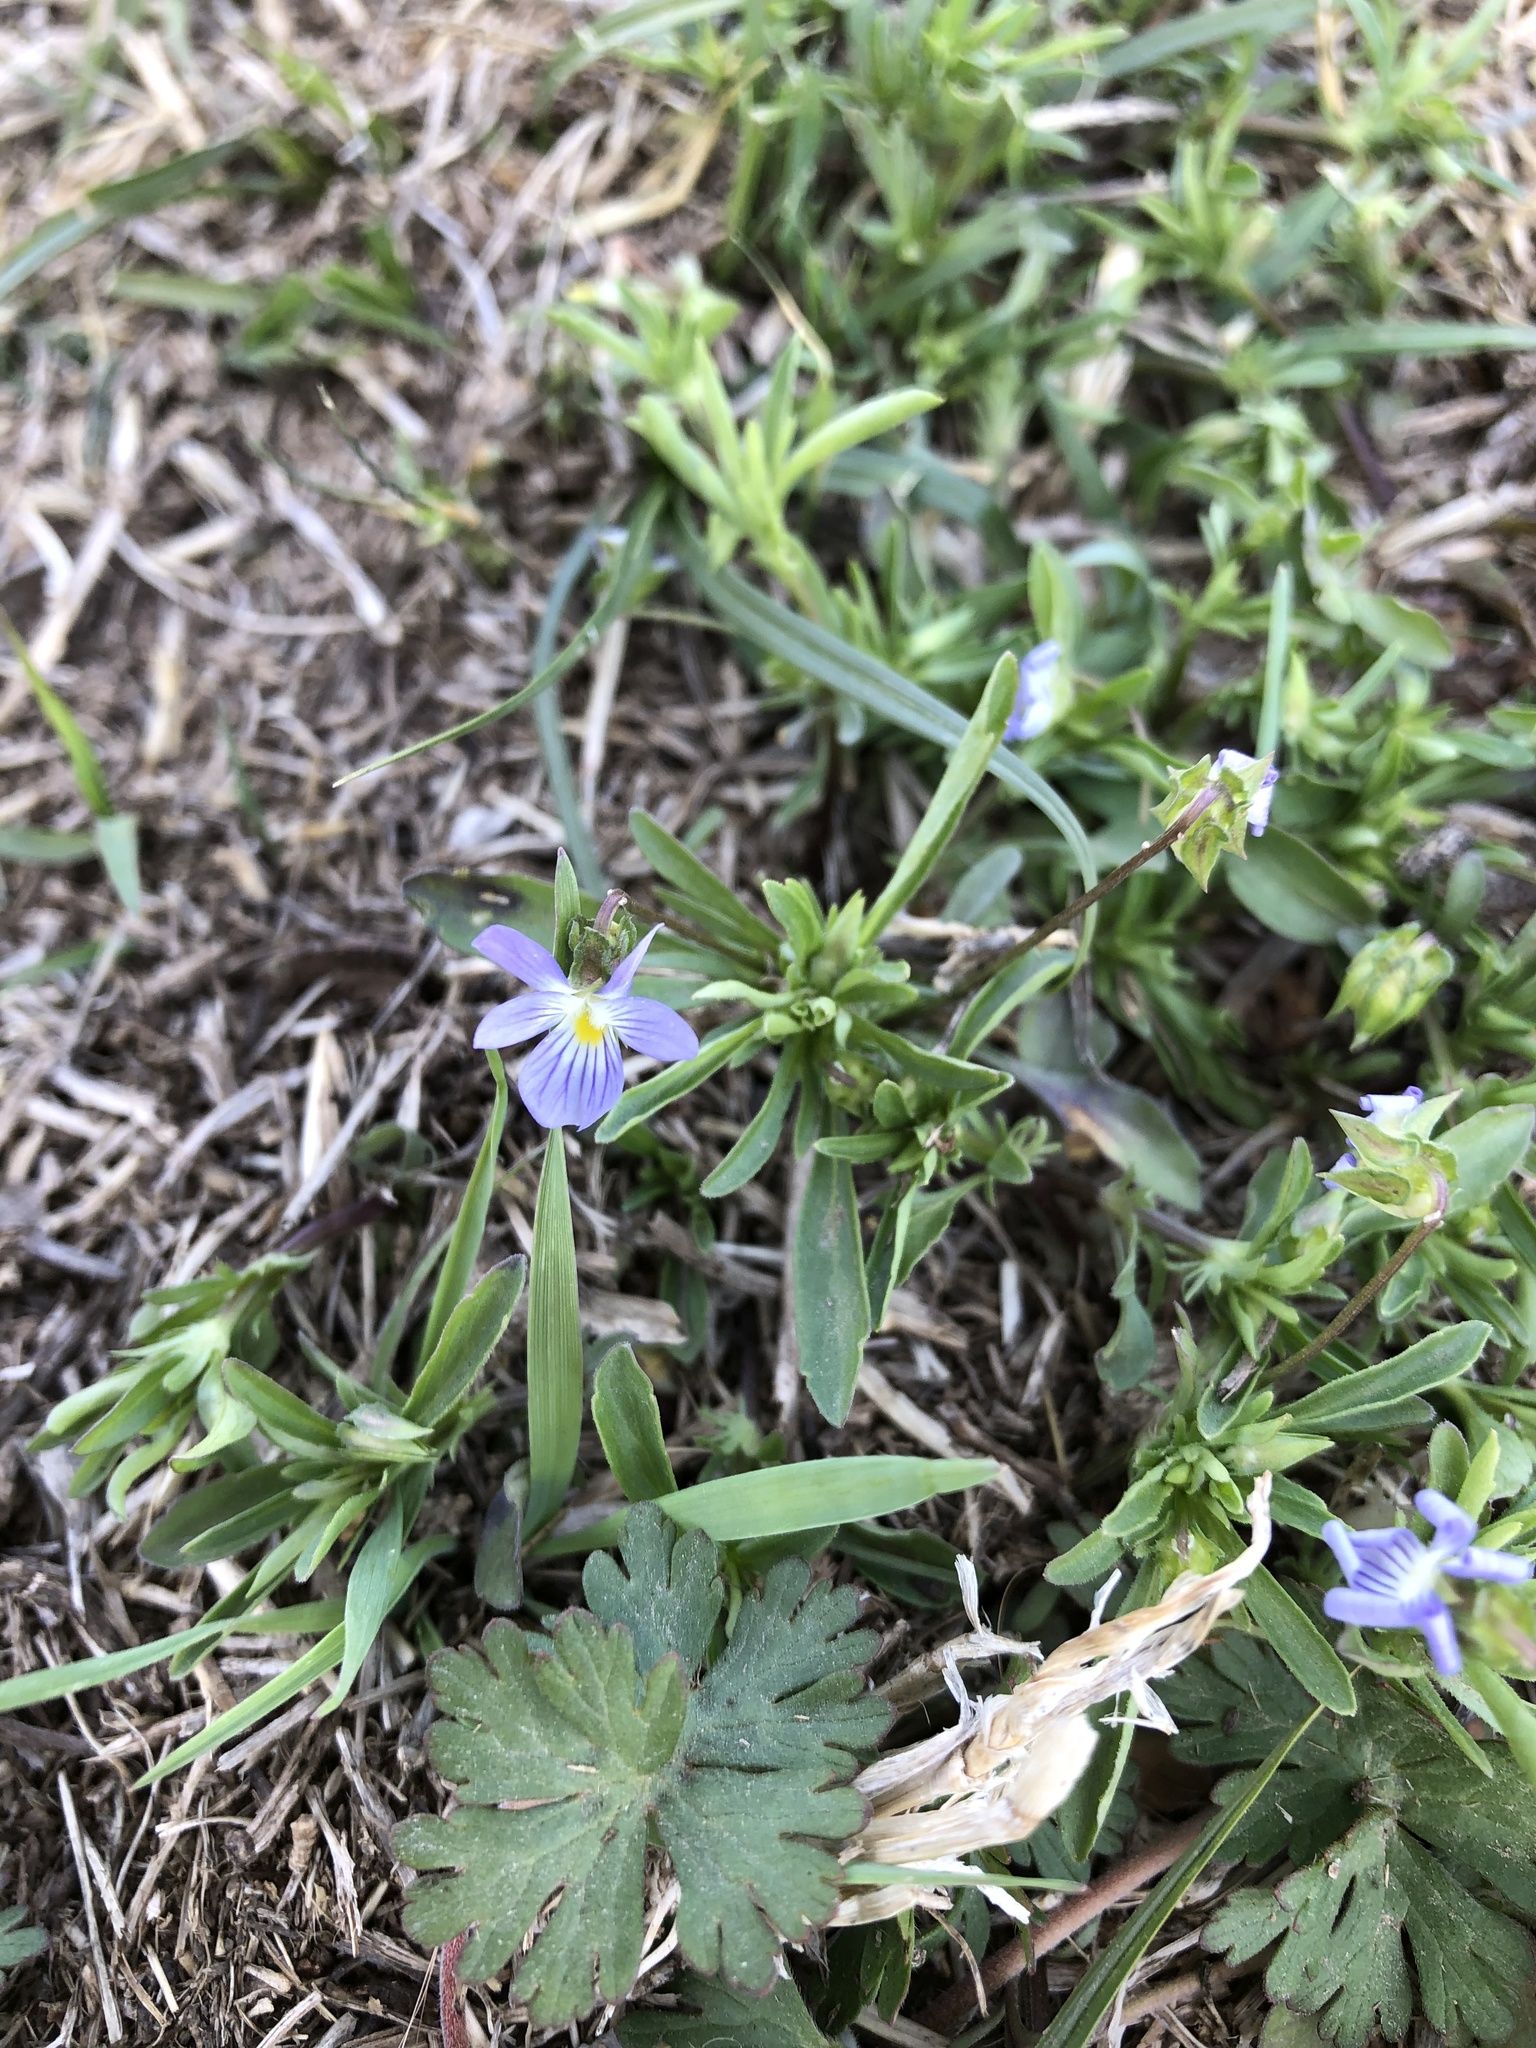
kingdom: Plantae
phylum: Tracheophyta
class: Magnoliopsida
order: Malpighiales
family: Violaceae
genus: Viola
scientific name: Viola rafinesquei
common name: American field pansy
